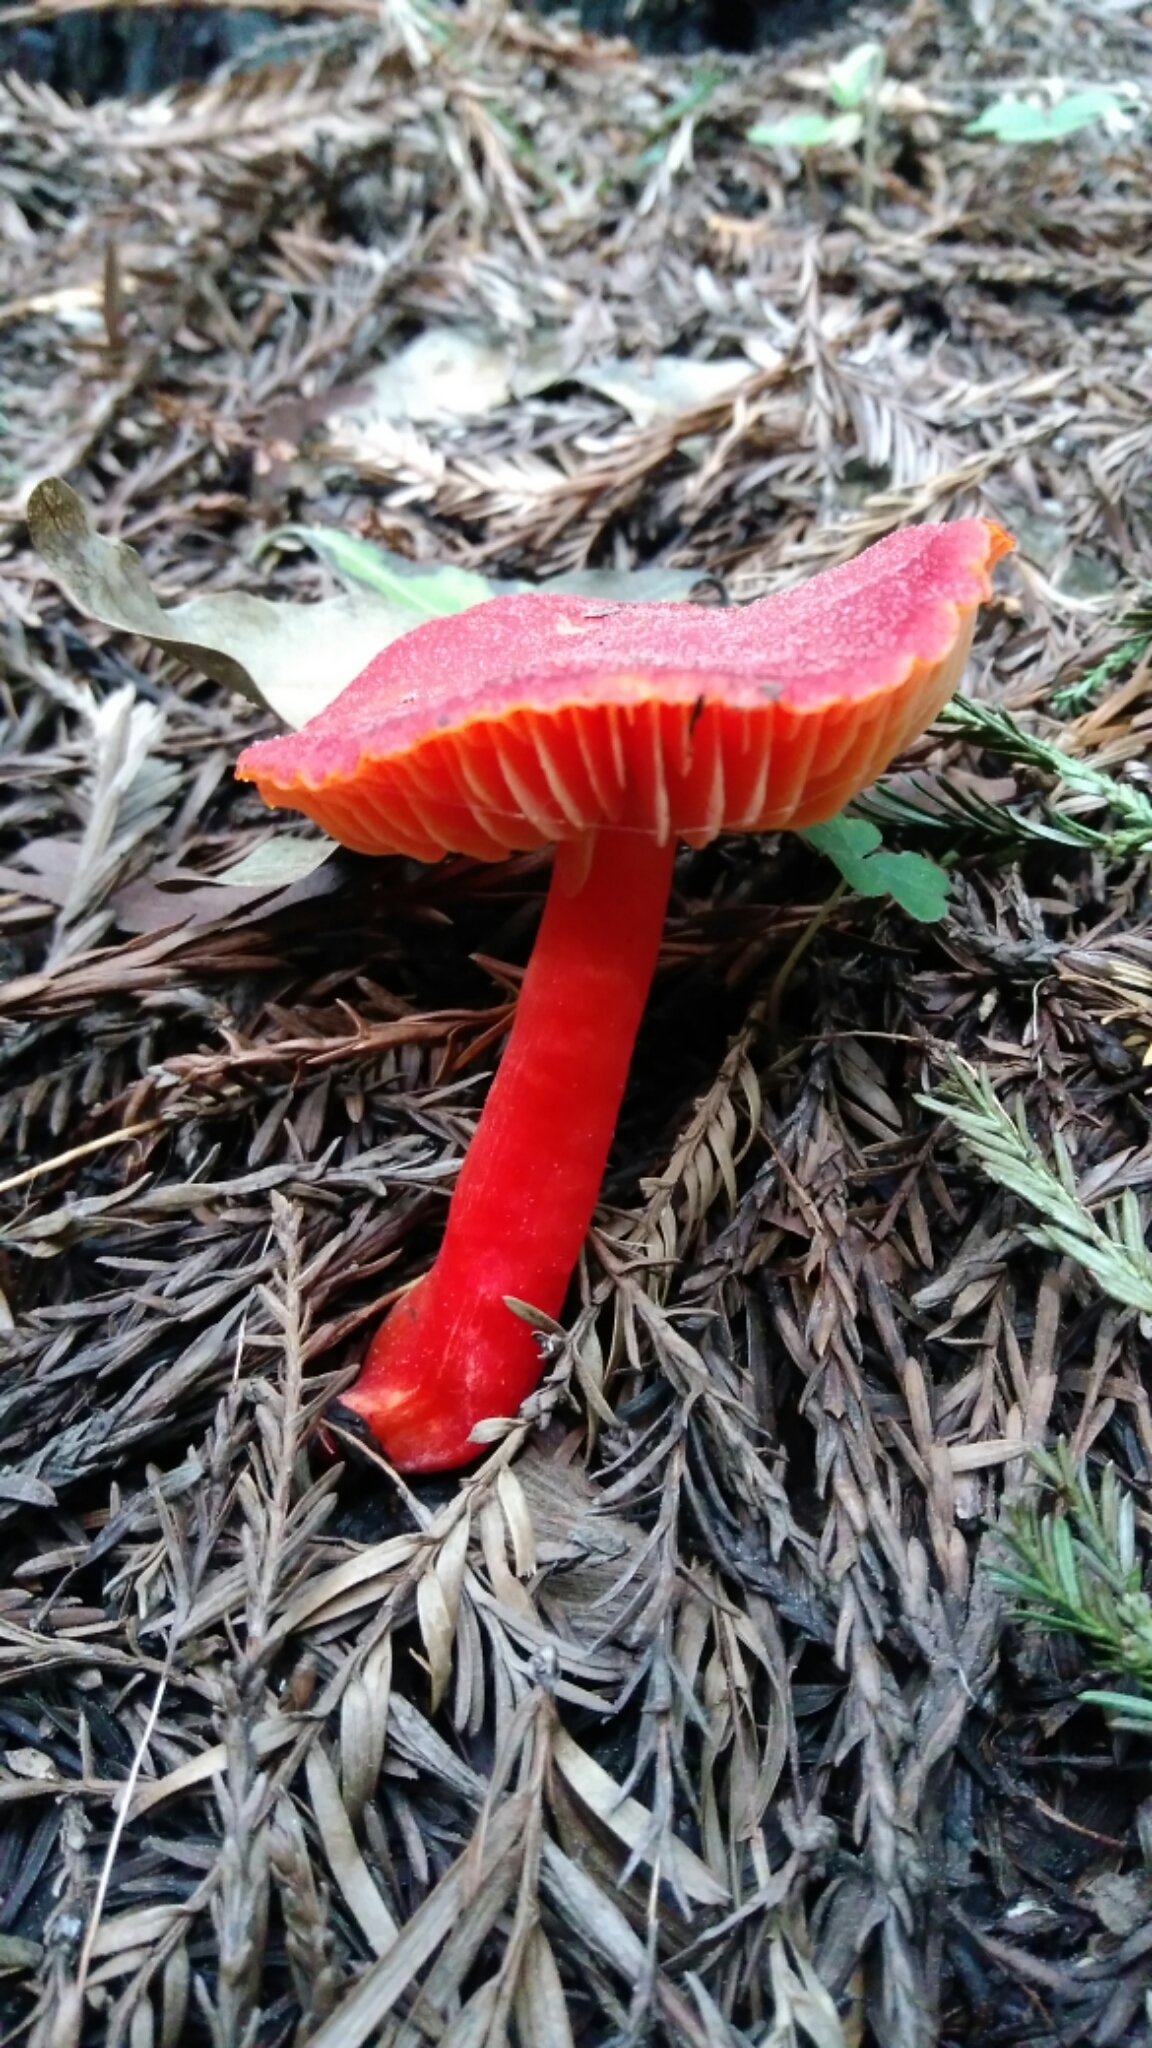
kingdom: Fungi
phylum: Basidiomycota
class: Agaricomycetes
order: Agaricales
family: Hygrophoraceae
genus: Hygrocybe
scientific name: Hygrocybe coccinea
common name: Scarlet hood
